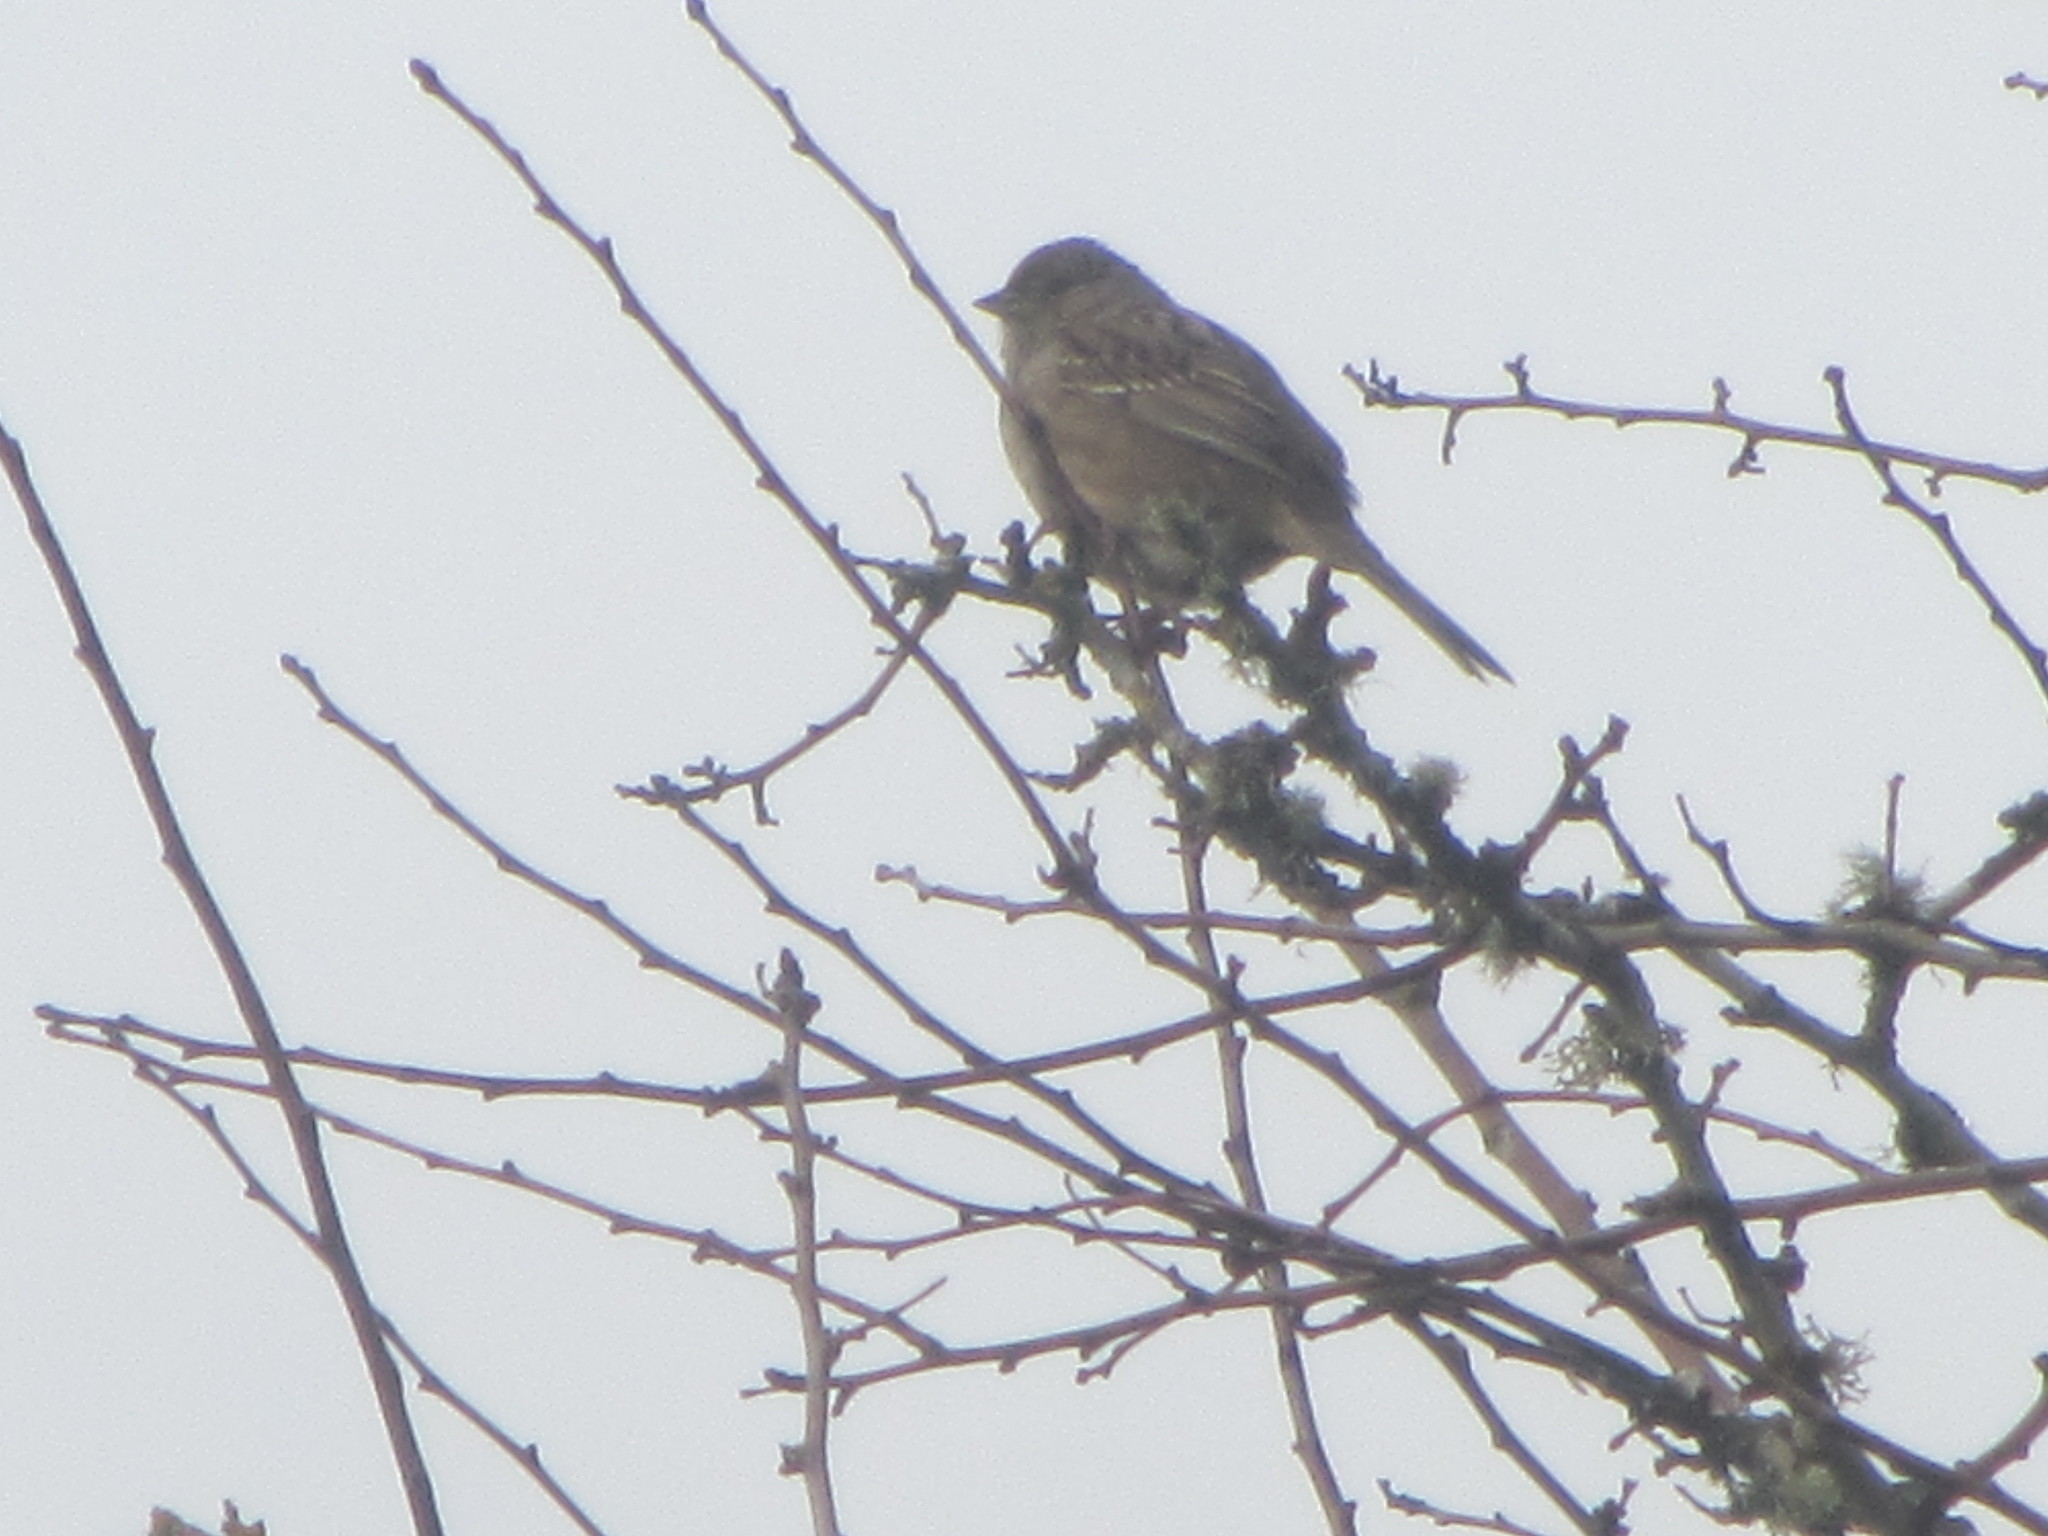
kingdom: Animalia
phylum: Chordata
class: Aves
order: Passeriformes
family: Passerellidae
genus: Zonotrichia
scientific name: Zonotrichia atricapilla
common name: Golden-crowned sparrow
